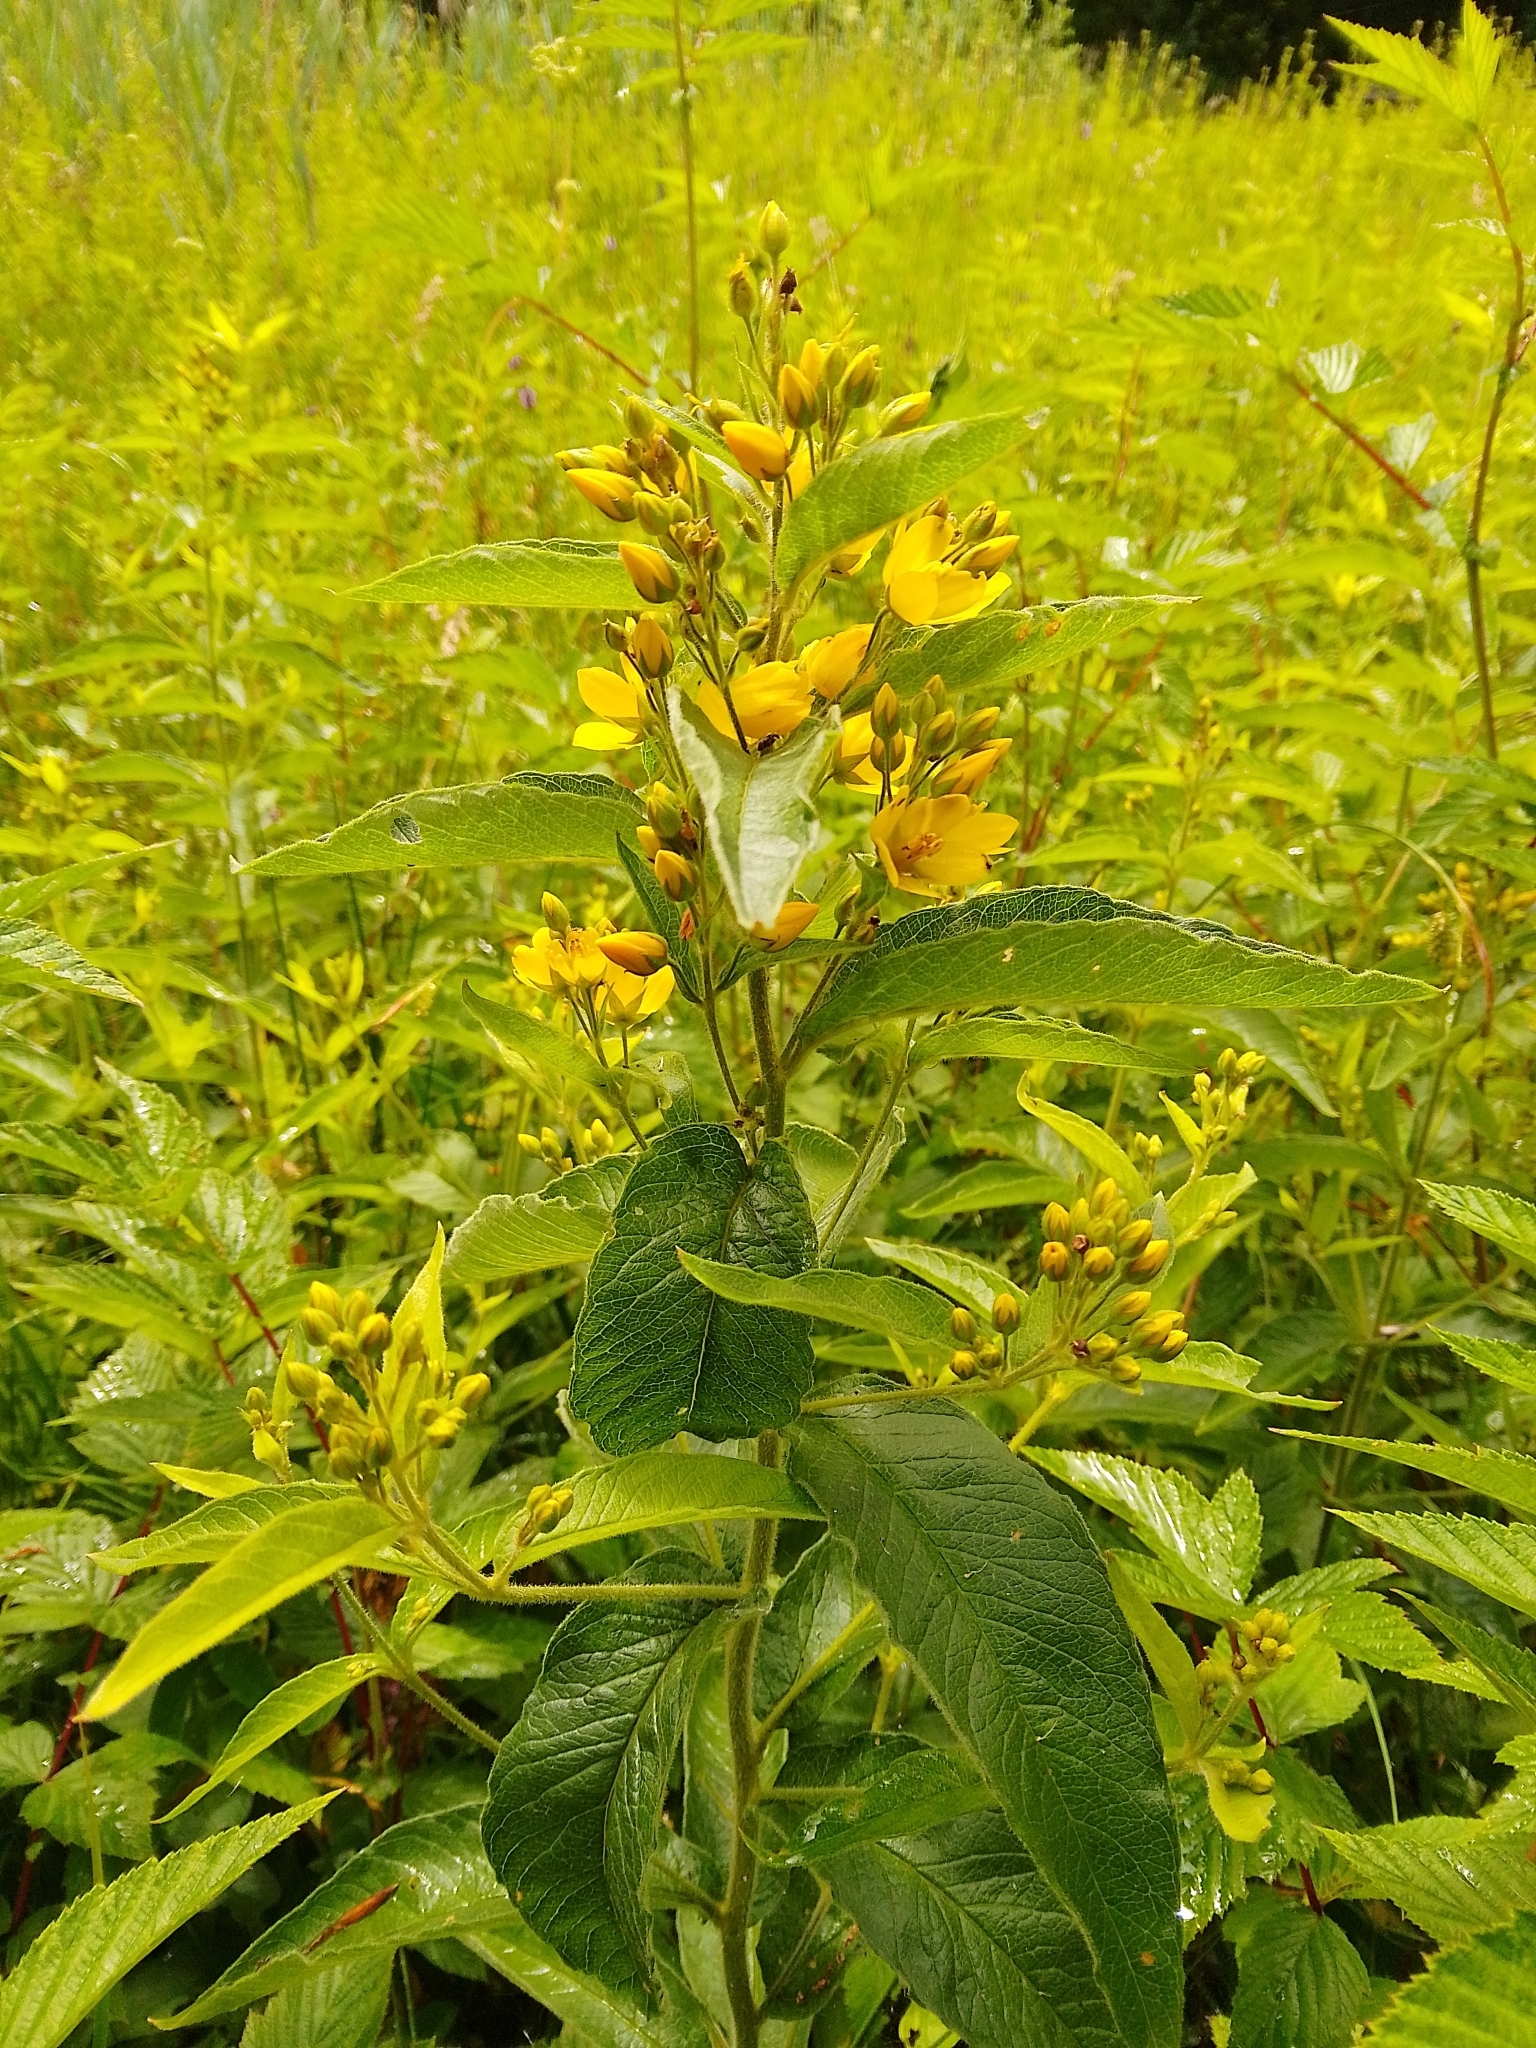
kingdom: Plantae
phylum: Tracheophyta
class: Magnoliopsida
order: Ericales
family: Primulaceae
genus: Lysimachia
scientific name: Lysimachia vulgaris
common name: Yellow loosestrife
